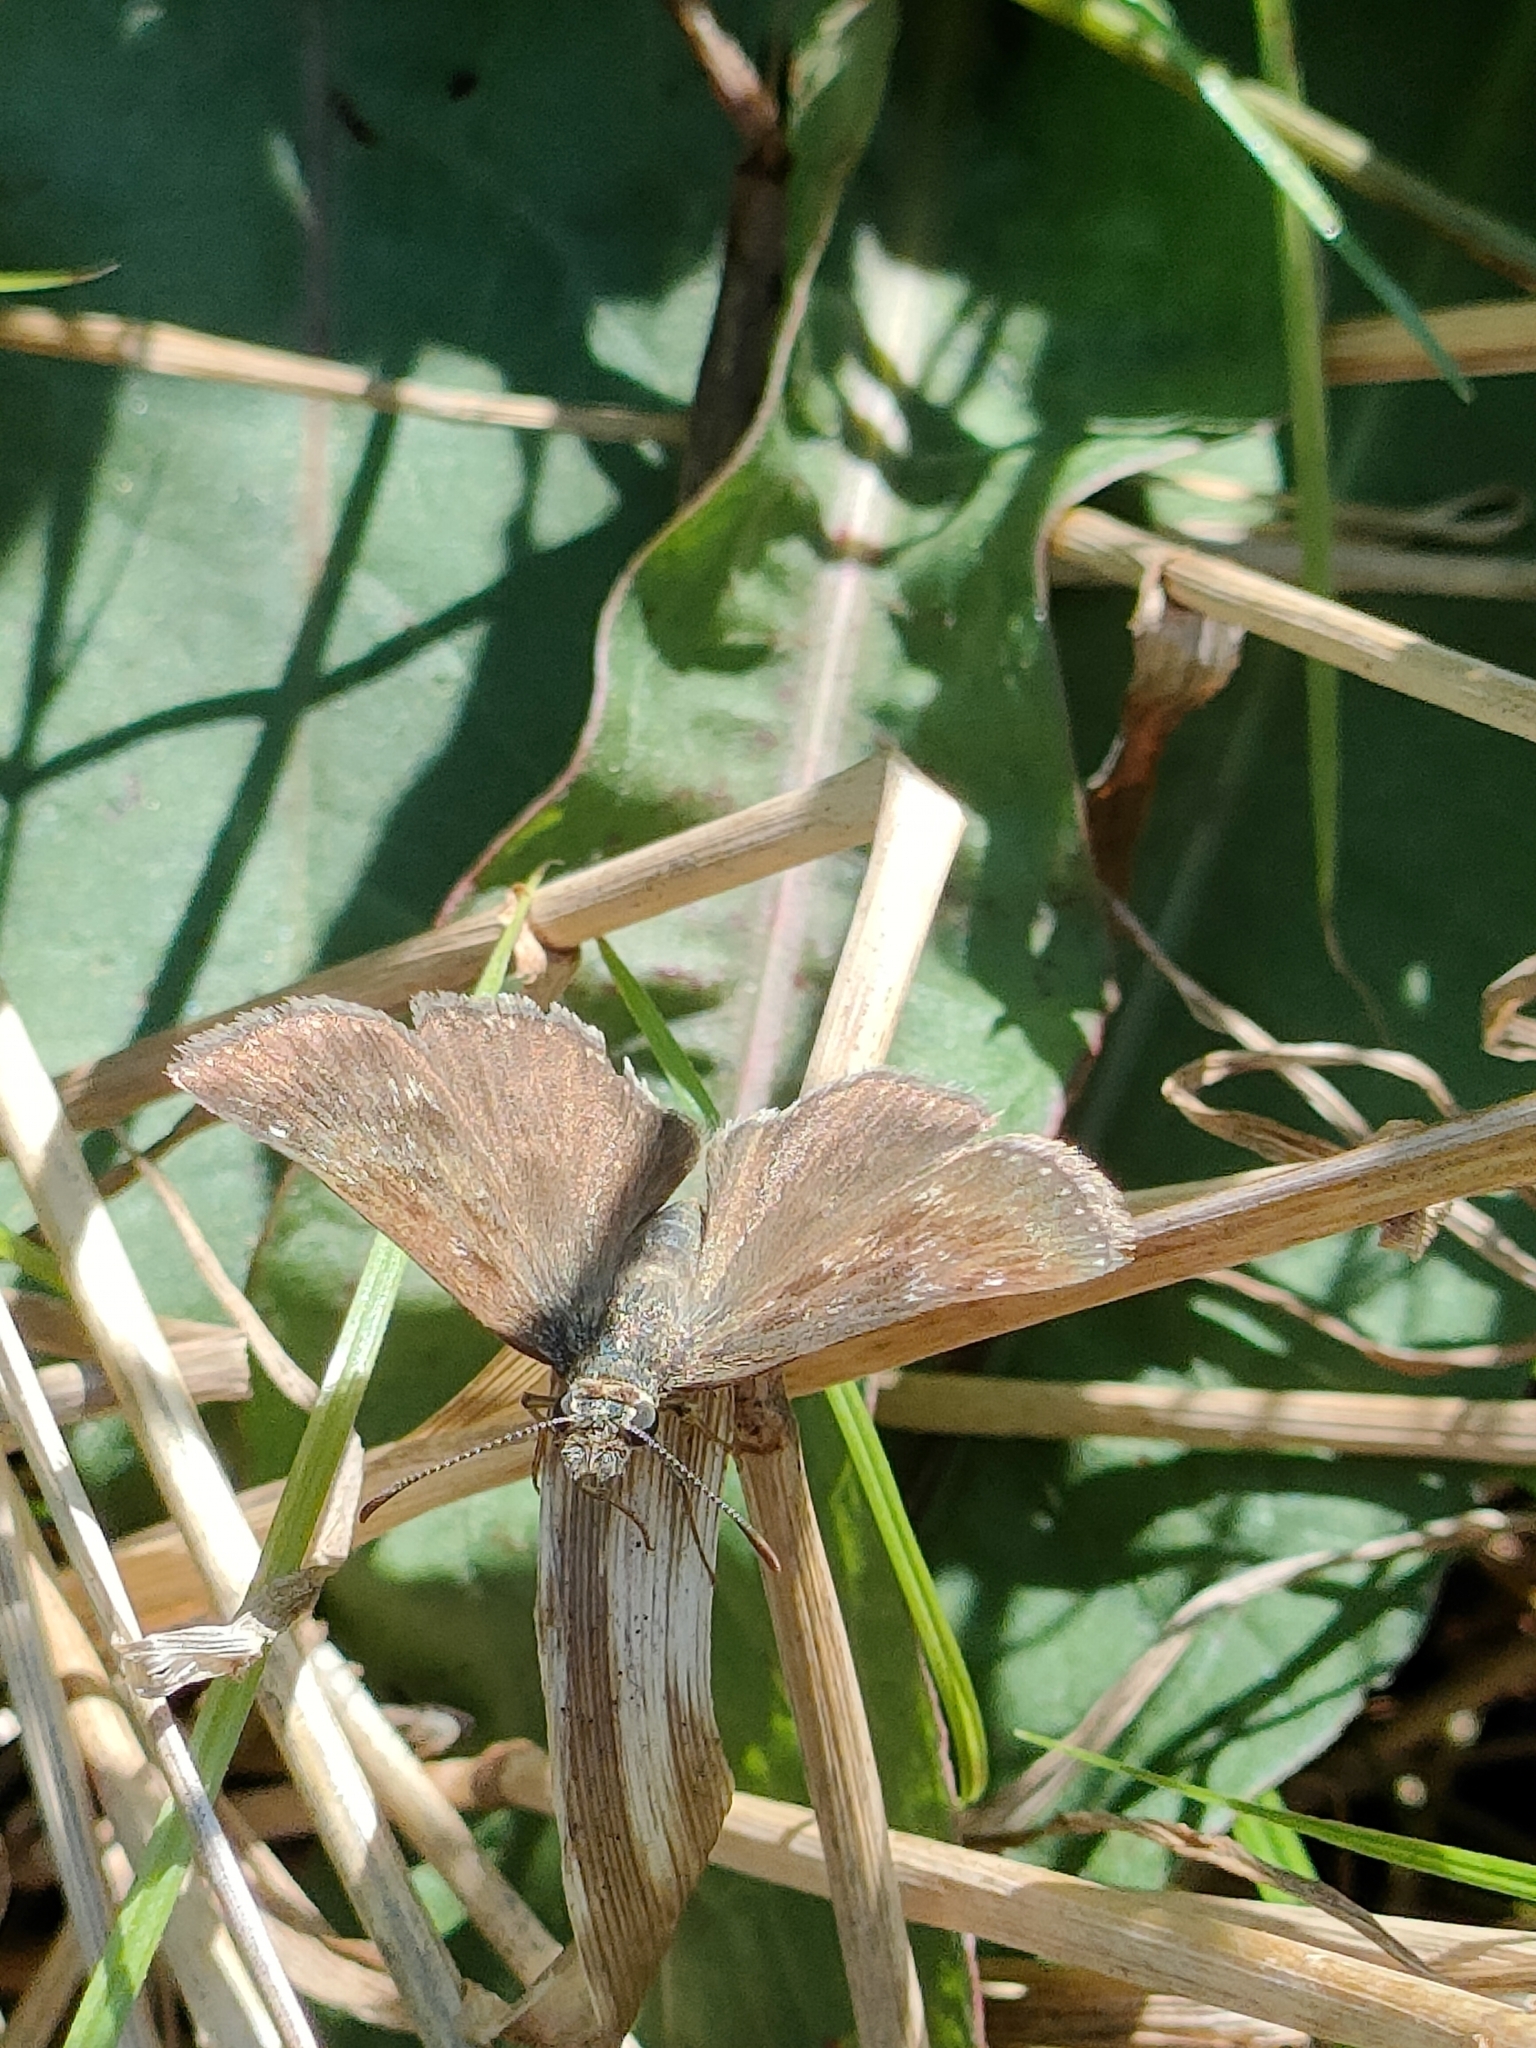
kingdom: Animalia
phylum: Arthropoda
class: Insecta
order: Lepidoptera
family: Hesperiidae
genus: Erynnis
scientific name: Erynnis tages
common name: Dingy skipper
